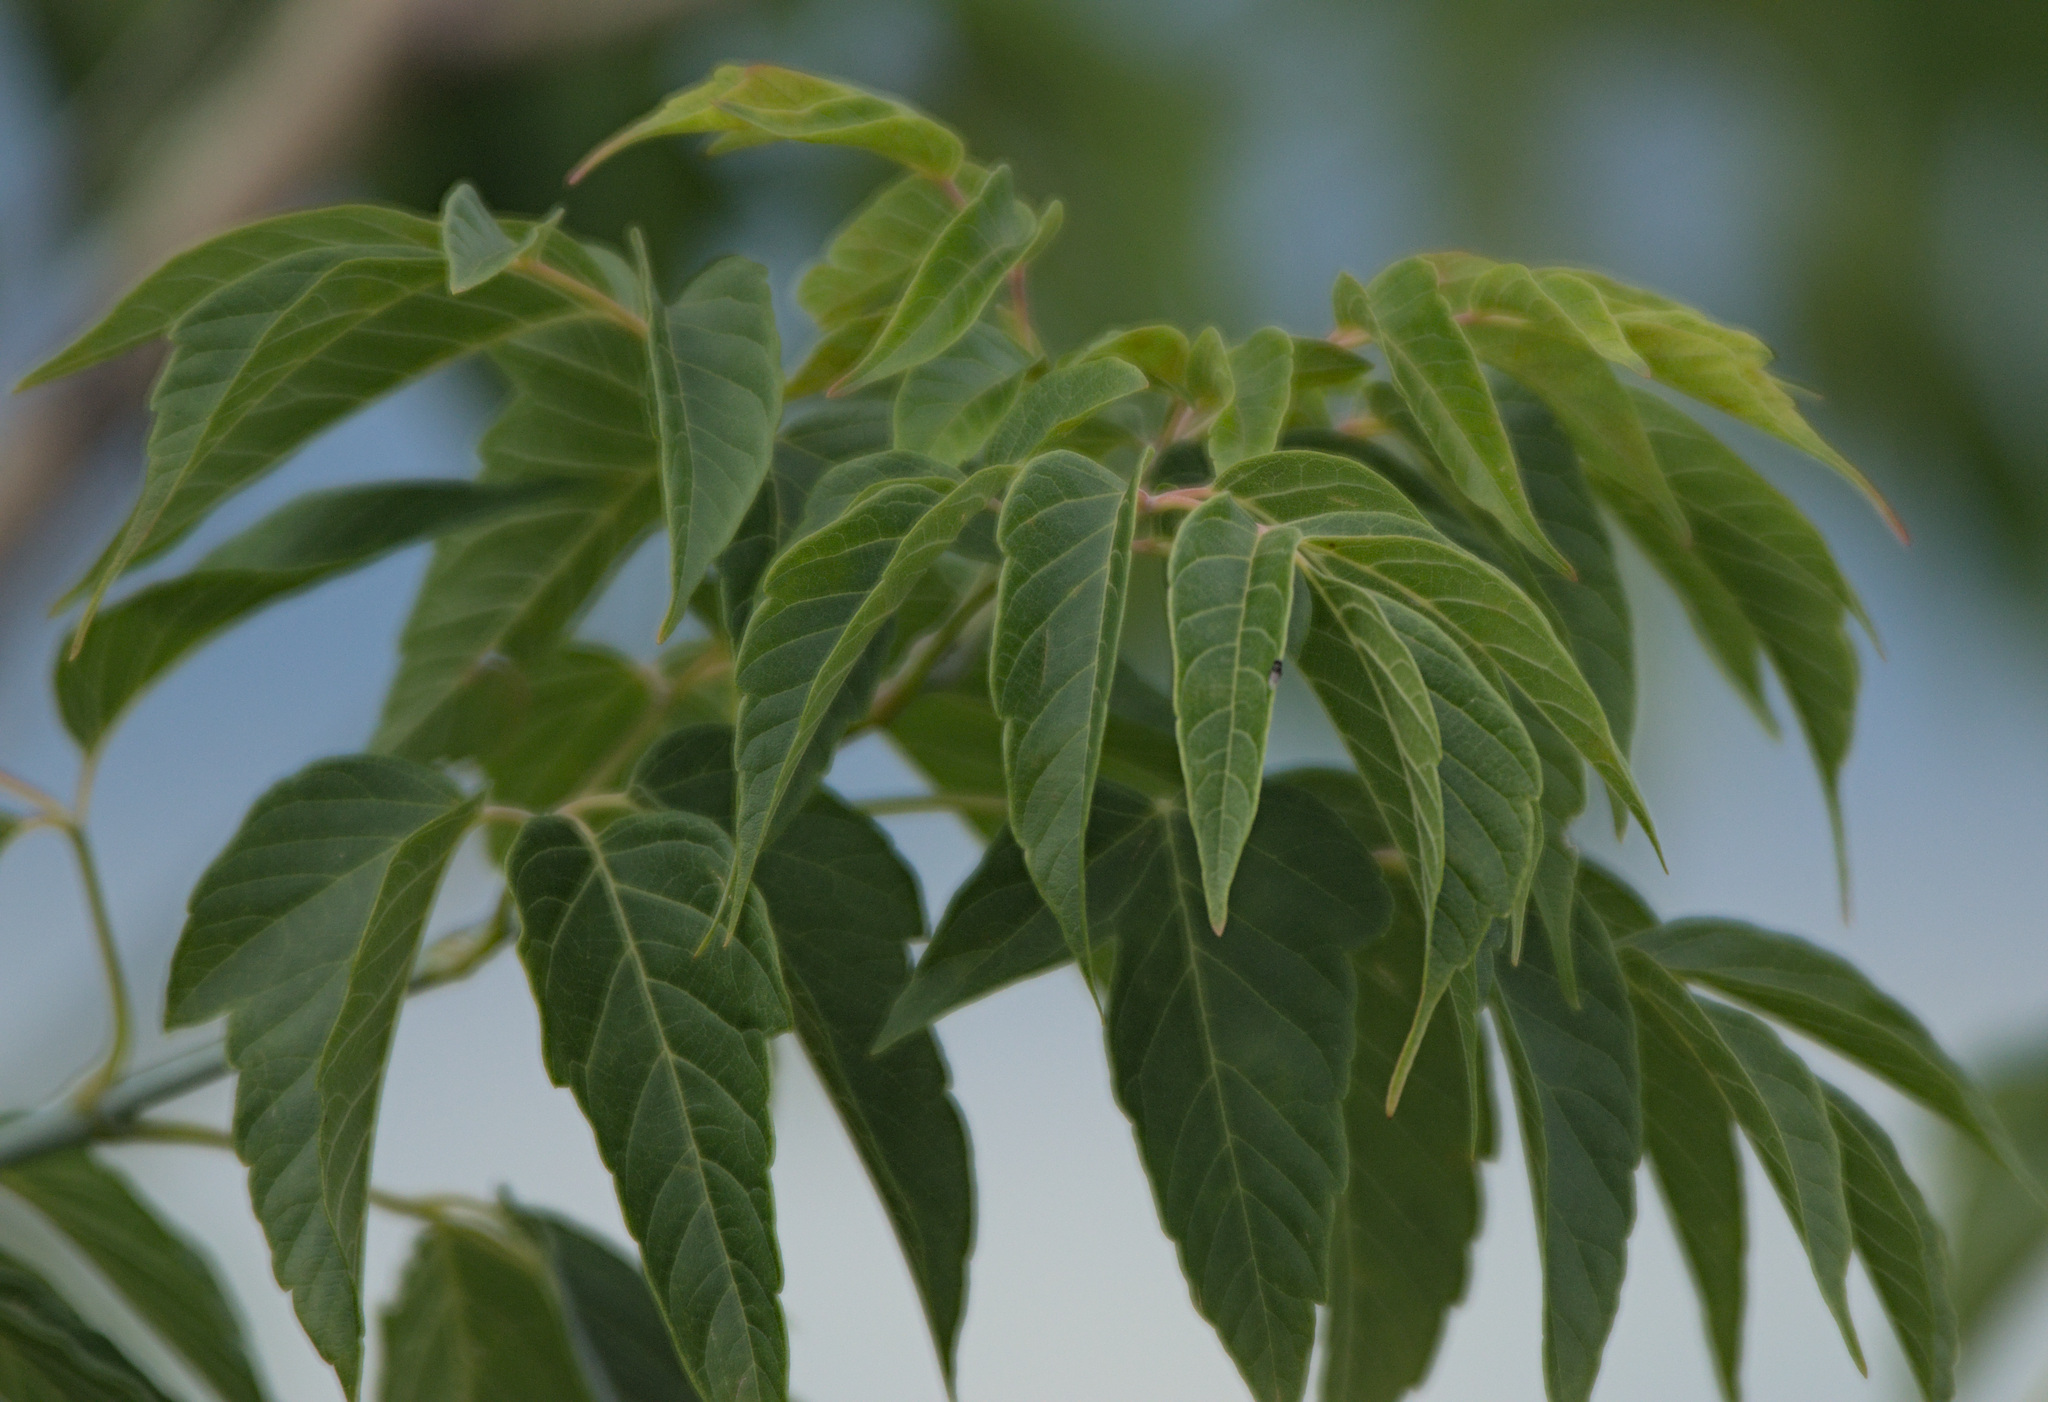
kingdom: Plantae
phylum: Tracheophyta
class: Magnoliopsida
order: Sapindales
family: Sapindaceae
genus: Acer
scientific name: Acer negundo
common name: Ashleaf maple
